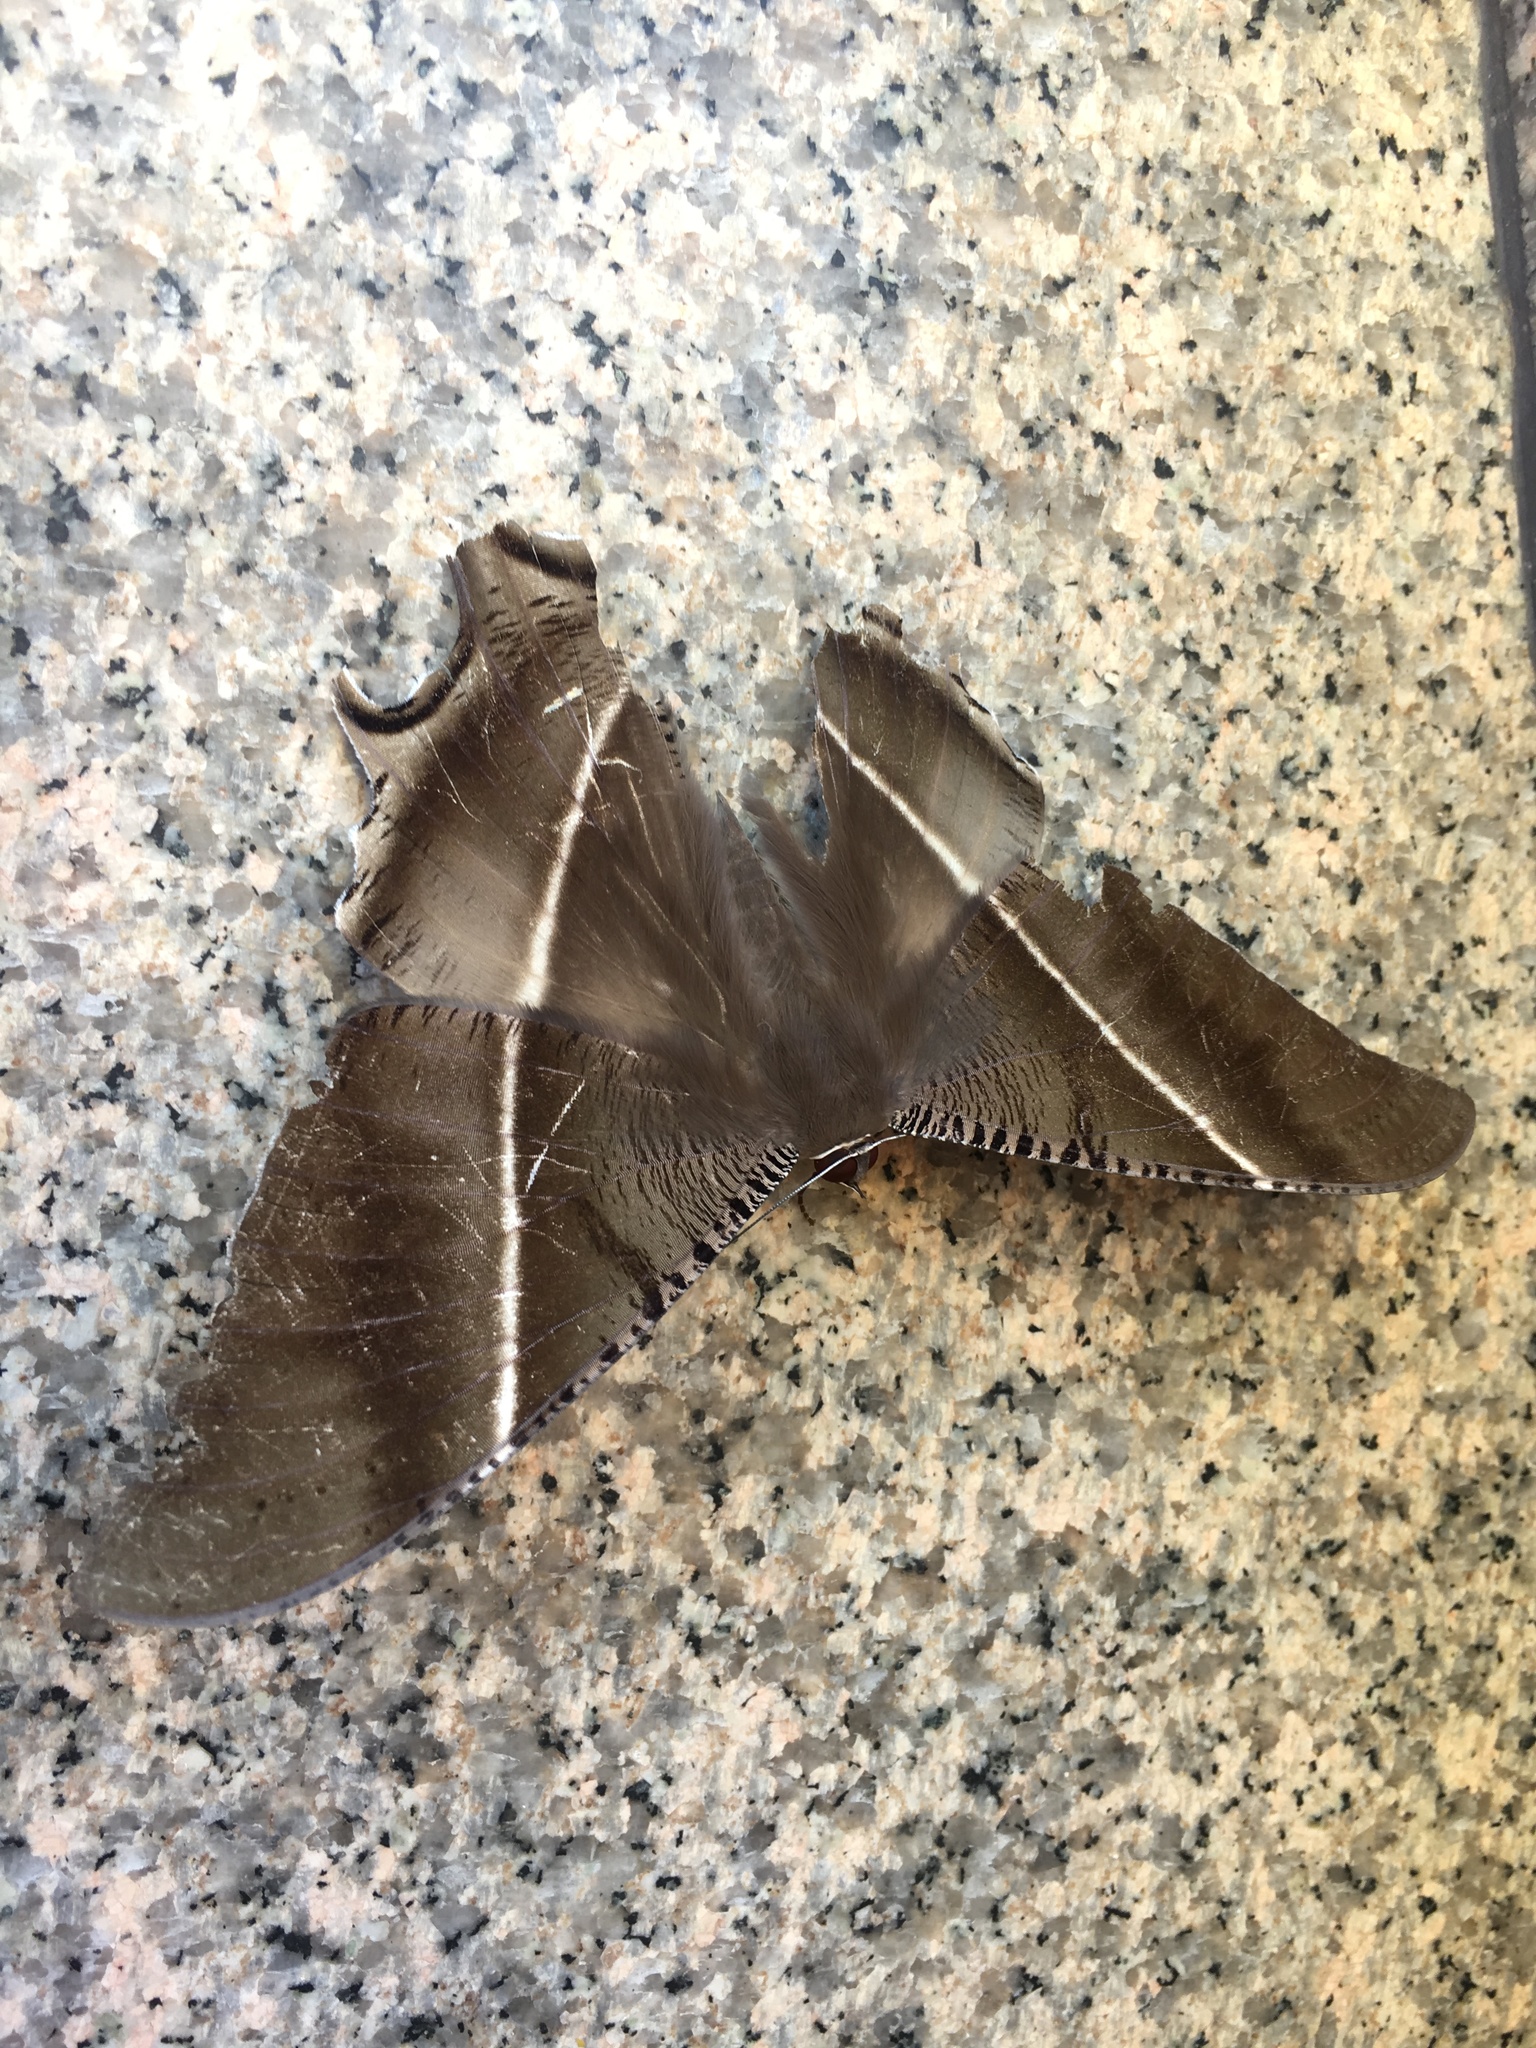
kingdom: Animalia
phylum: Arthropoda
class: Insecta
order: Lepidoptera
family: Uraniidae
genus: Lyssa
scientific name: Lyssa zampa
